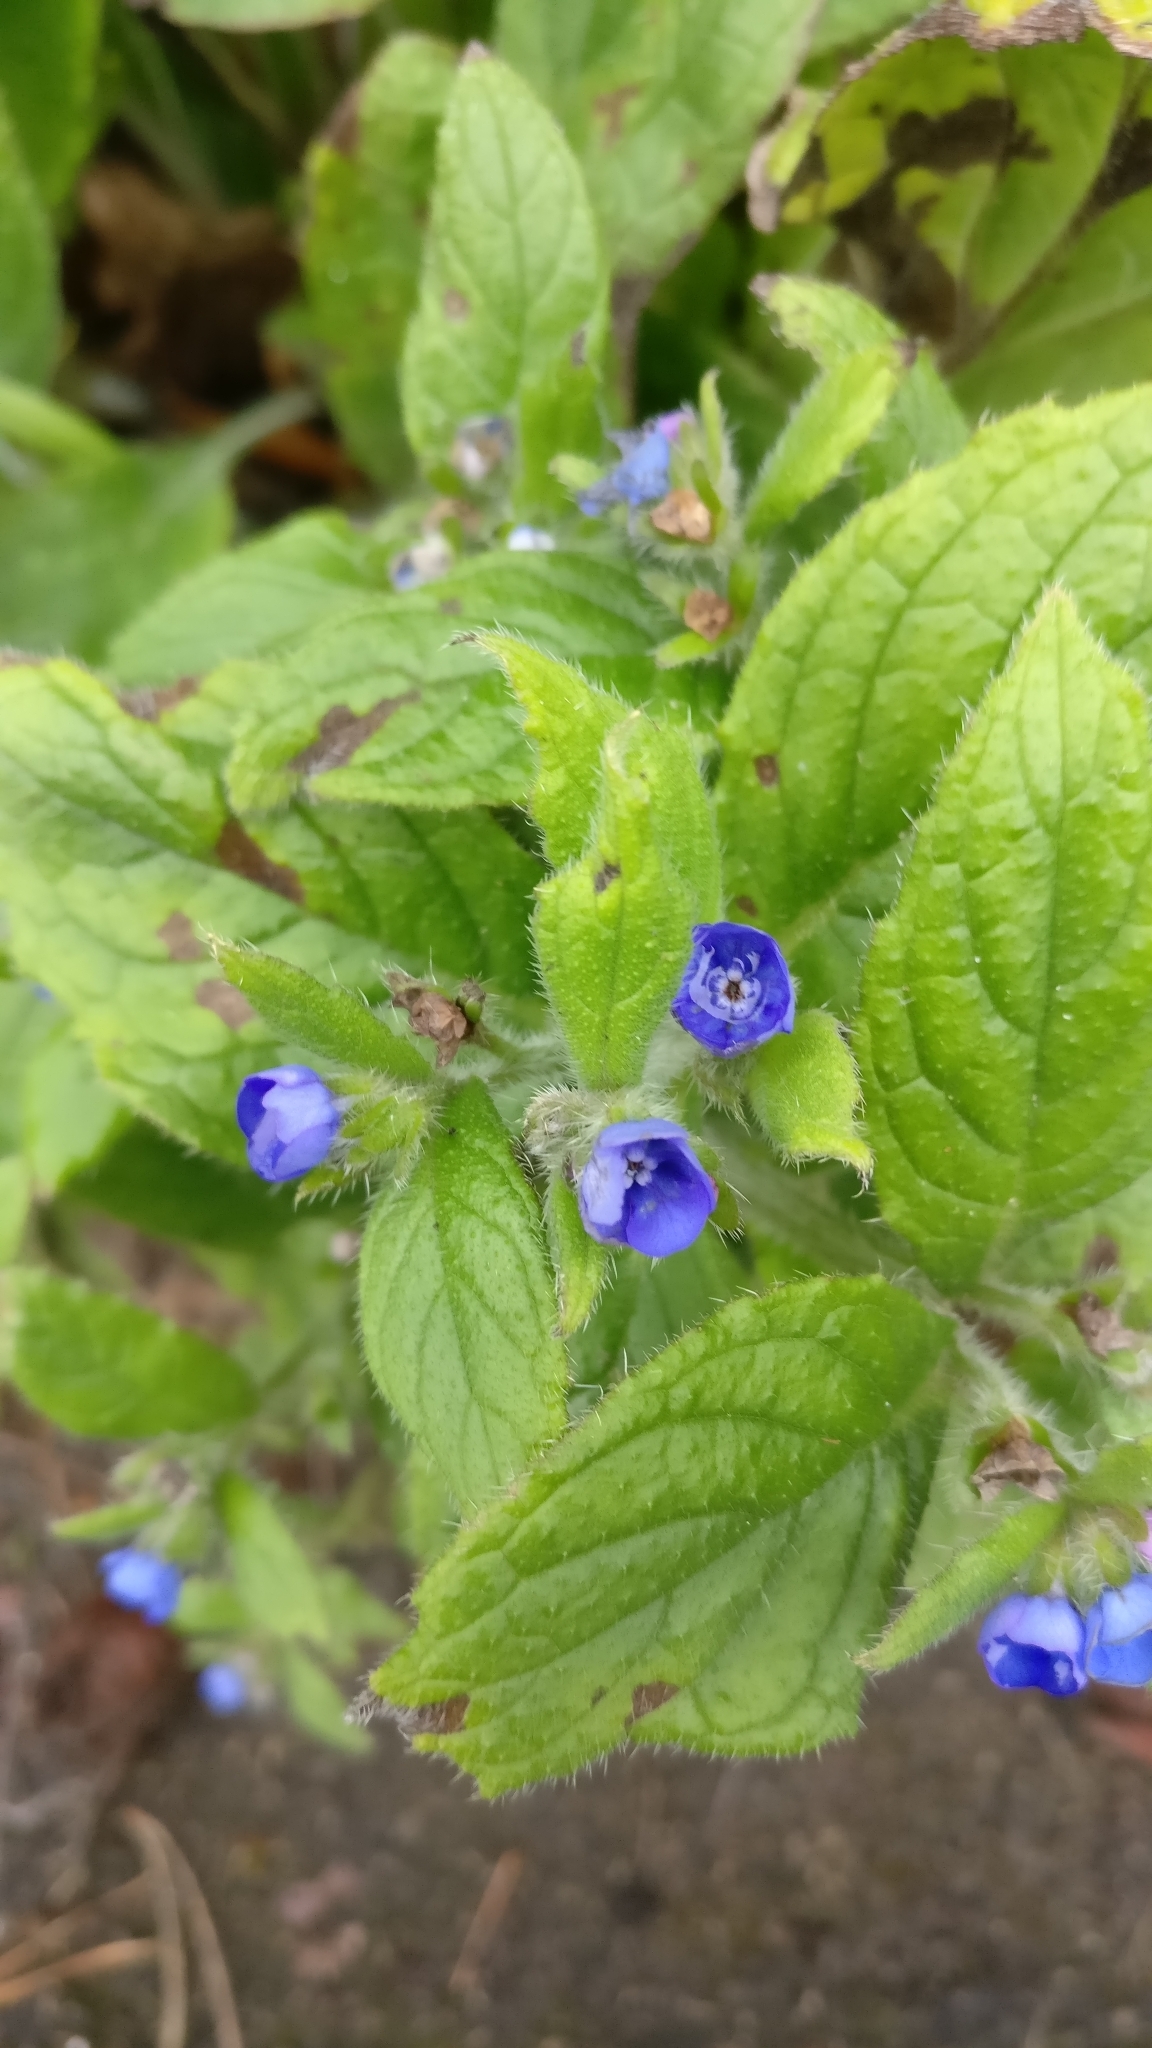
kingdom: Plantae
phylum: Tracheophyta
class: Magnoliopsida
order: Boraginales
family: Boraginaceae
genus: Pentaglottis
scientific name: Pentaglottis sempervirens
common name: Green alkanet
